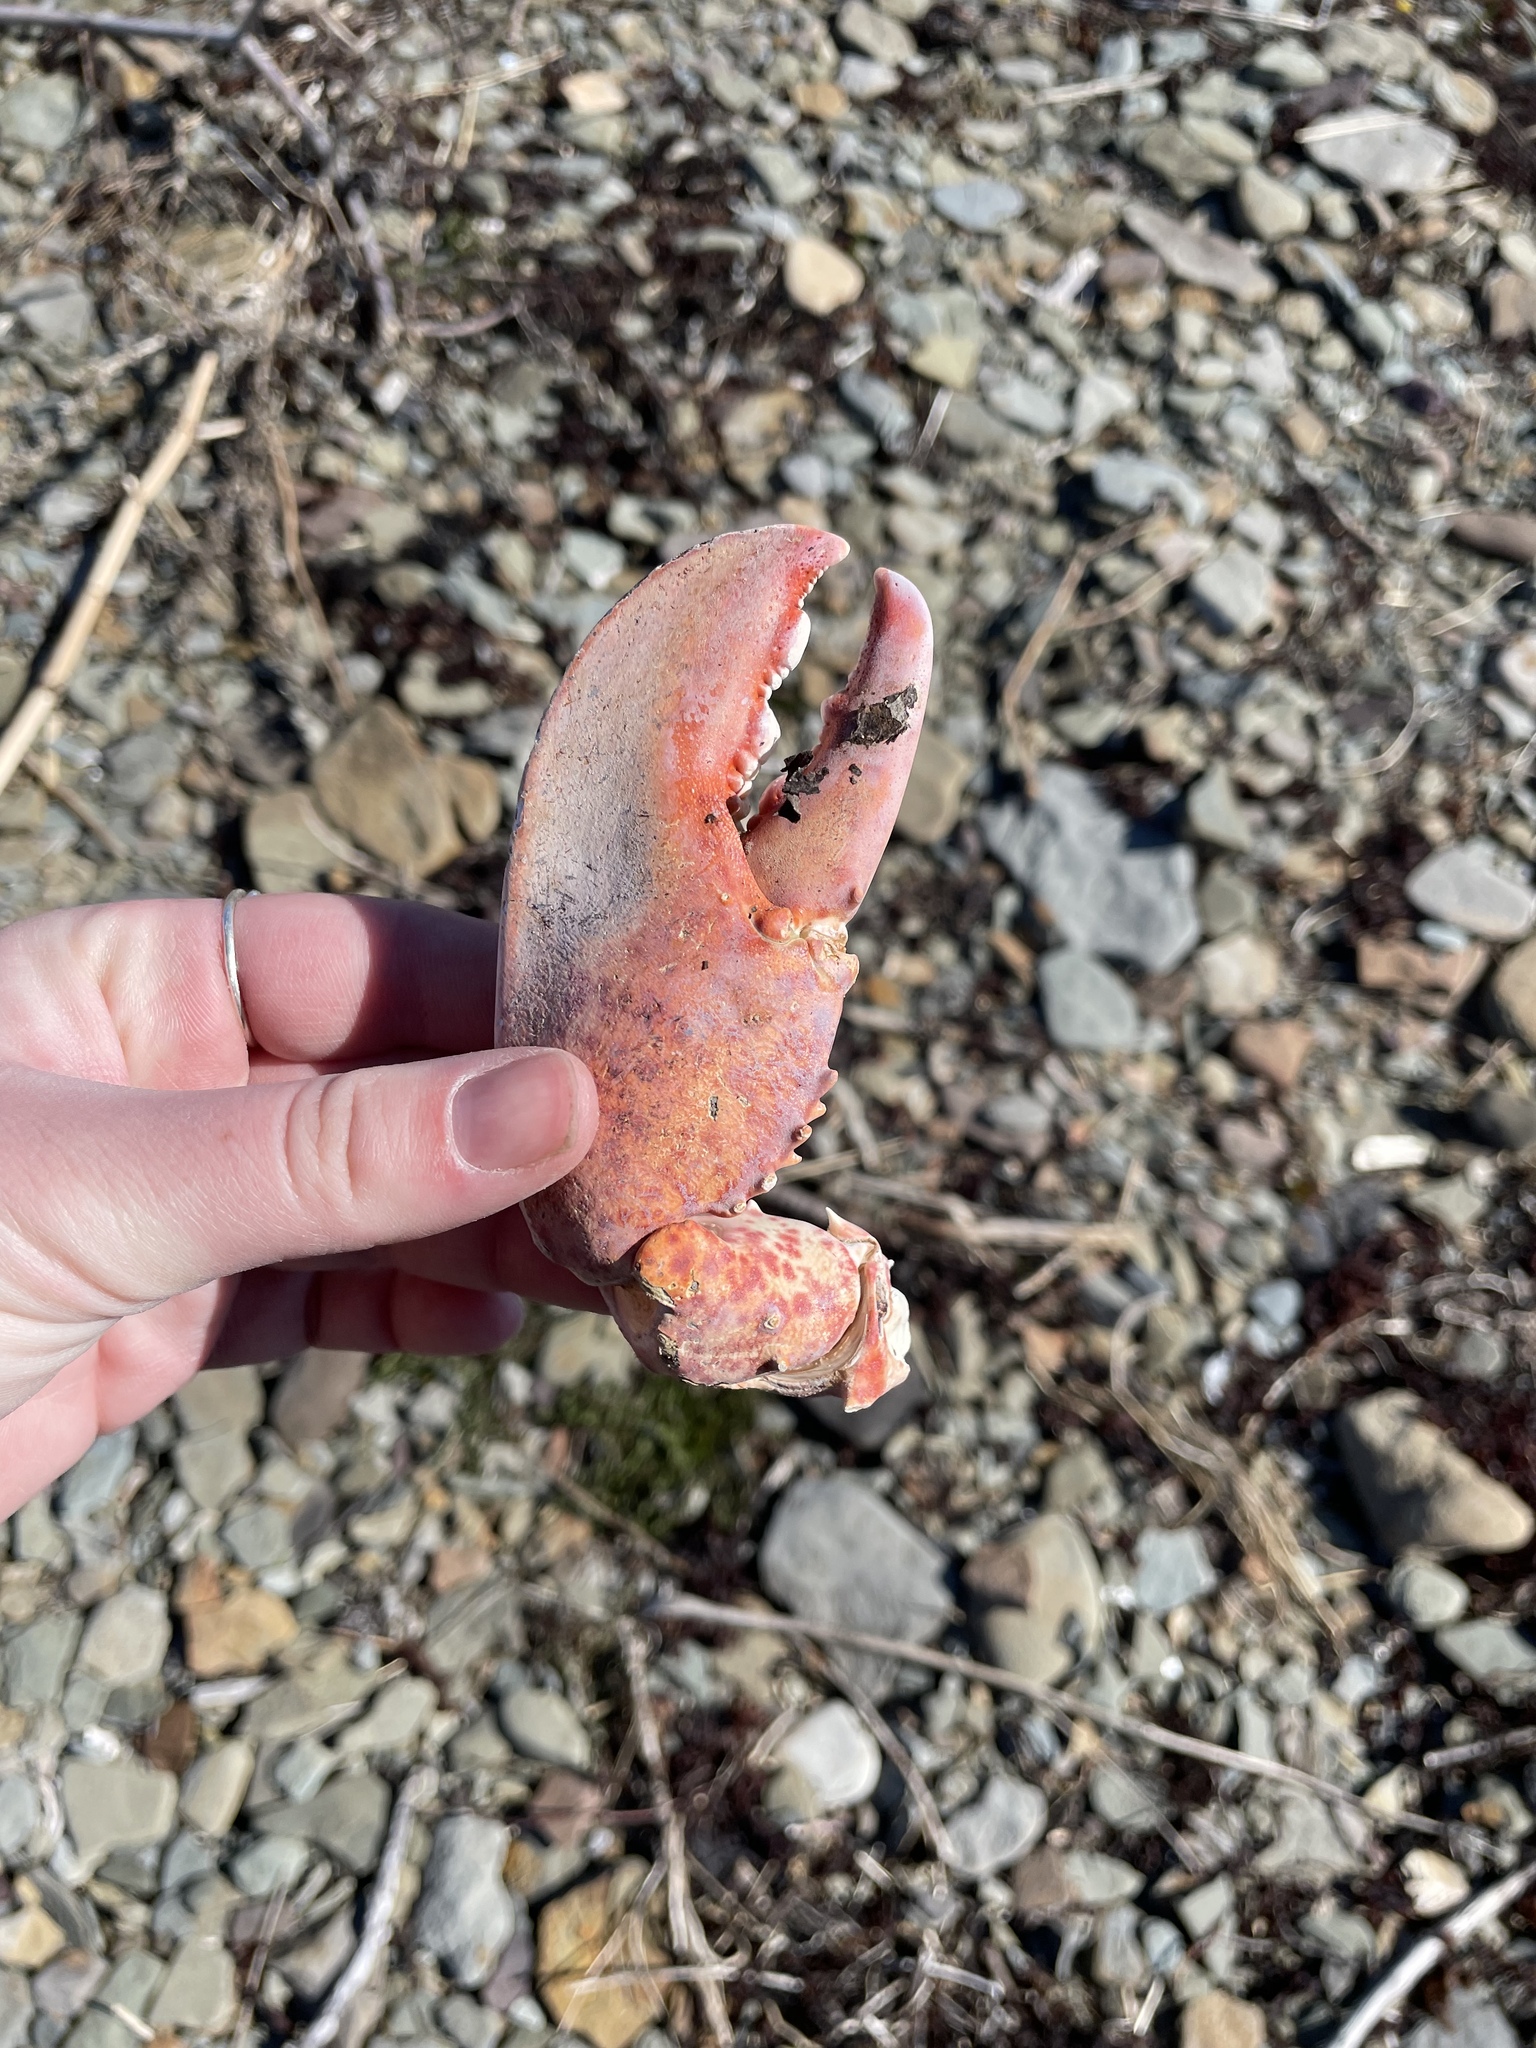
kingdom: Animalia
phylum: Arthropoda
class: Malacostraca
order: Decapoda
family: Nephropidae
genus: Homarus
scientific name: Homarus americanus
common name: American lobster
